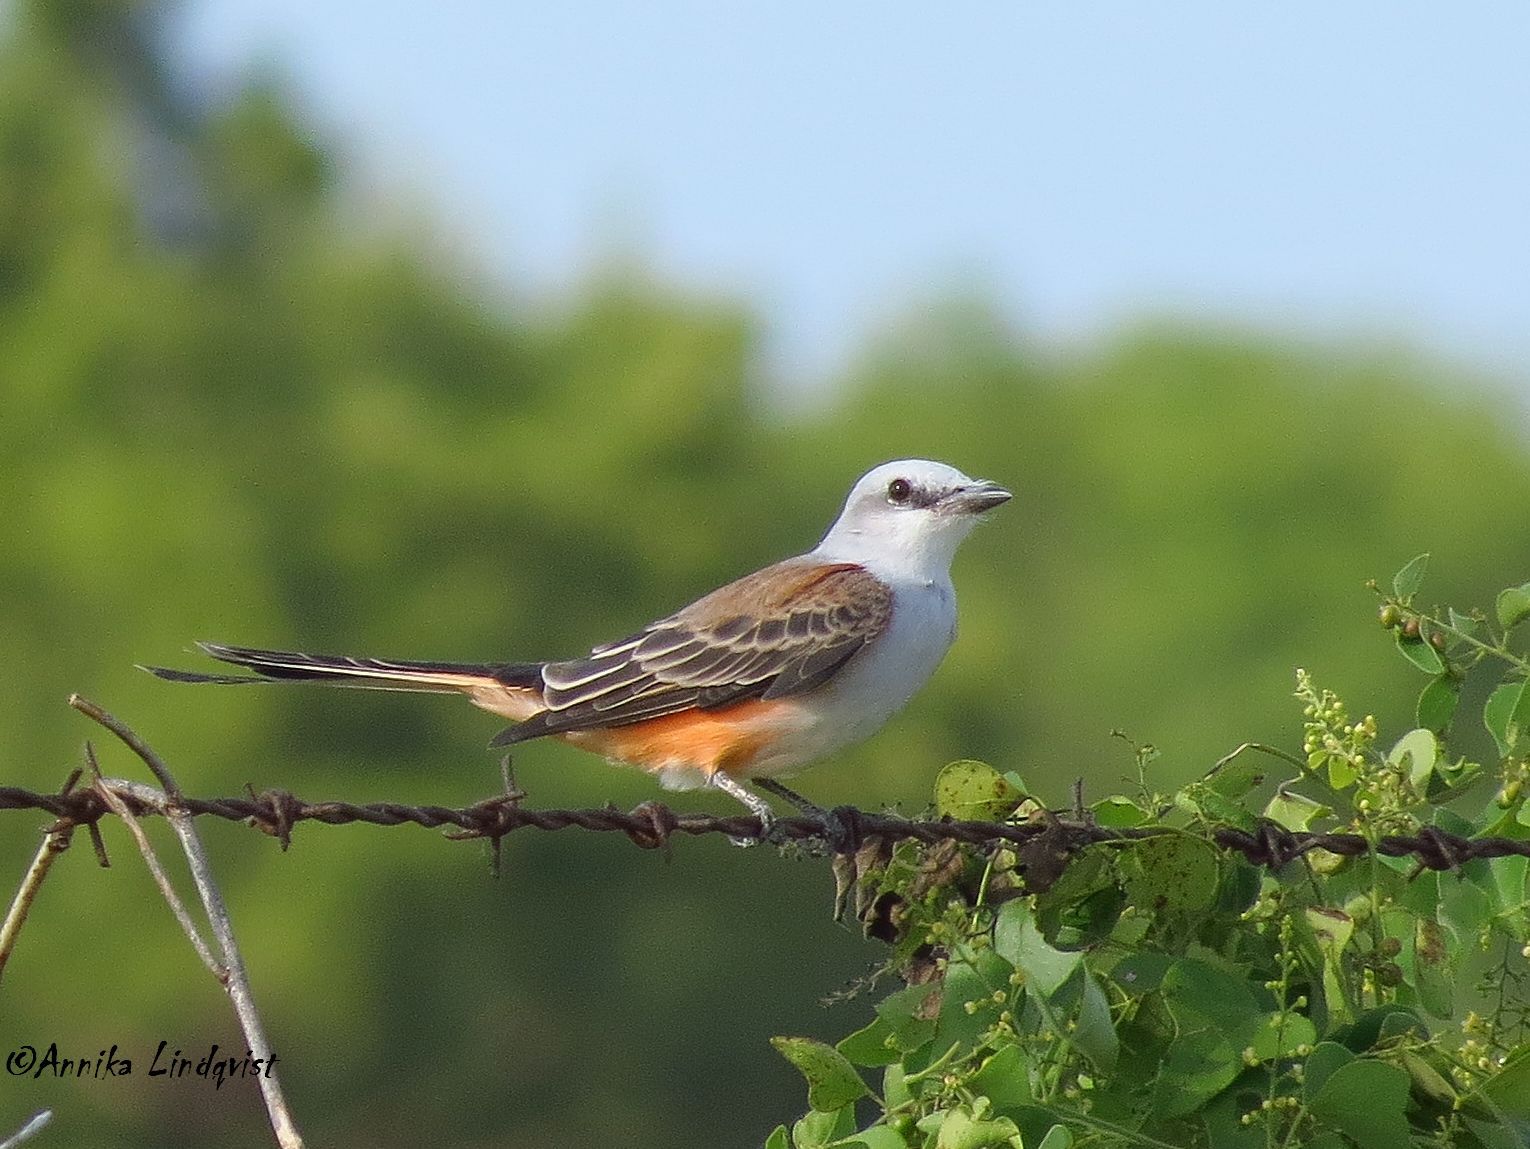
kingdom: Animalia
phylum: Chordata
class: Aves
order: Passeriformes
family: Tyrannidae
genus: Tyrannus
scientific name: Tyrannus forficatus
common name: Scissor-tailed flycatcher
